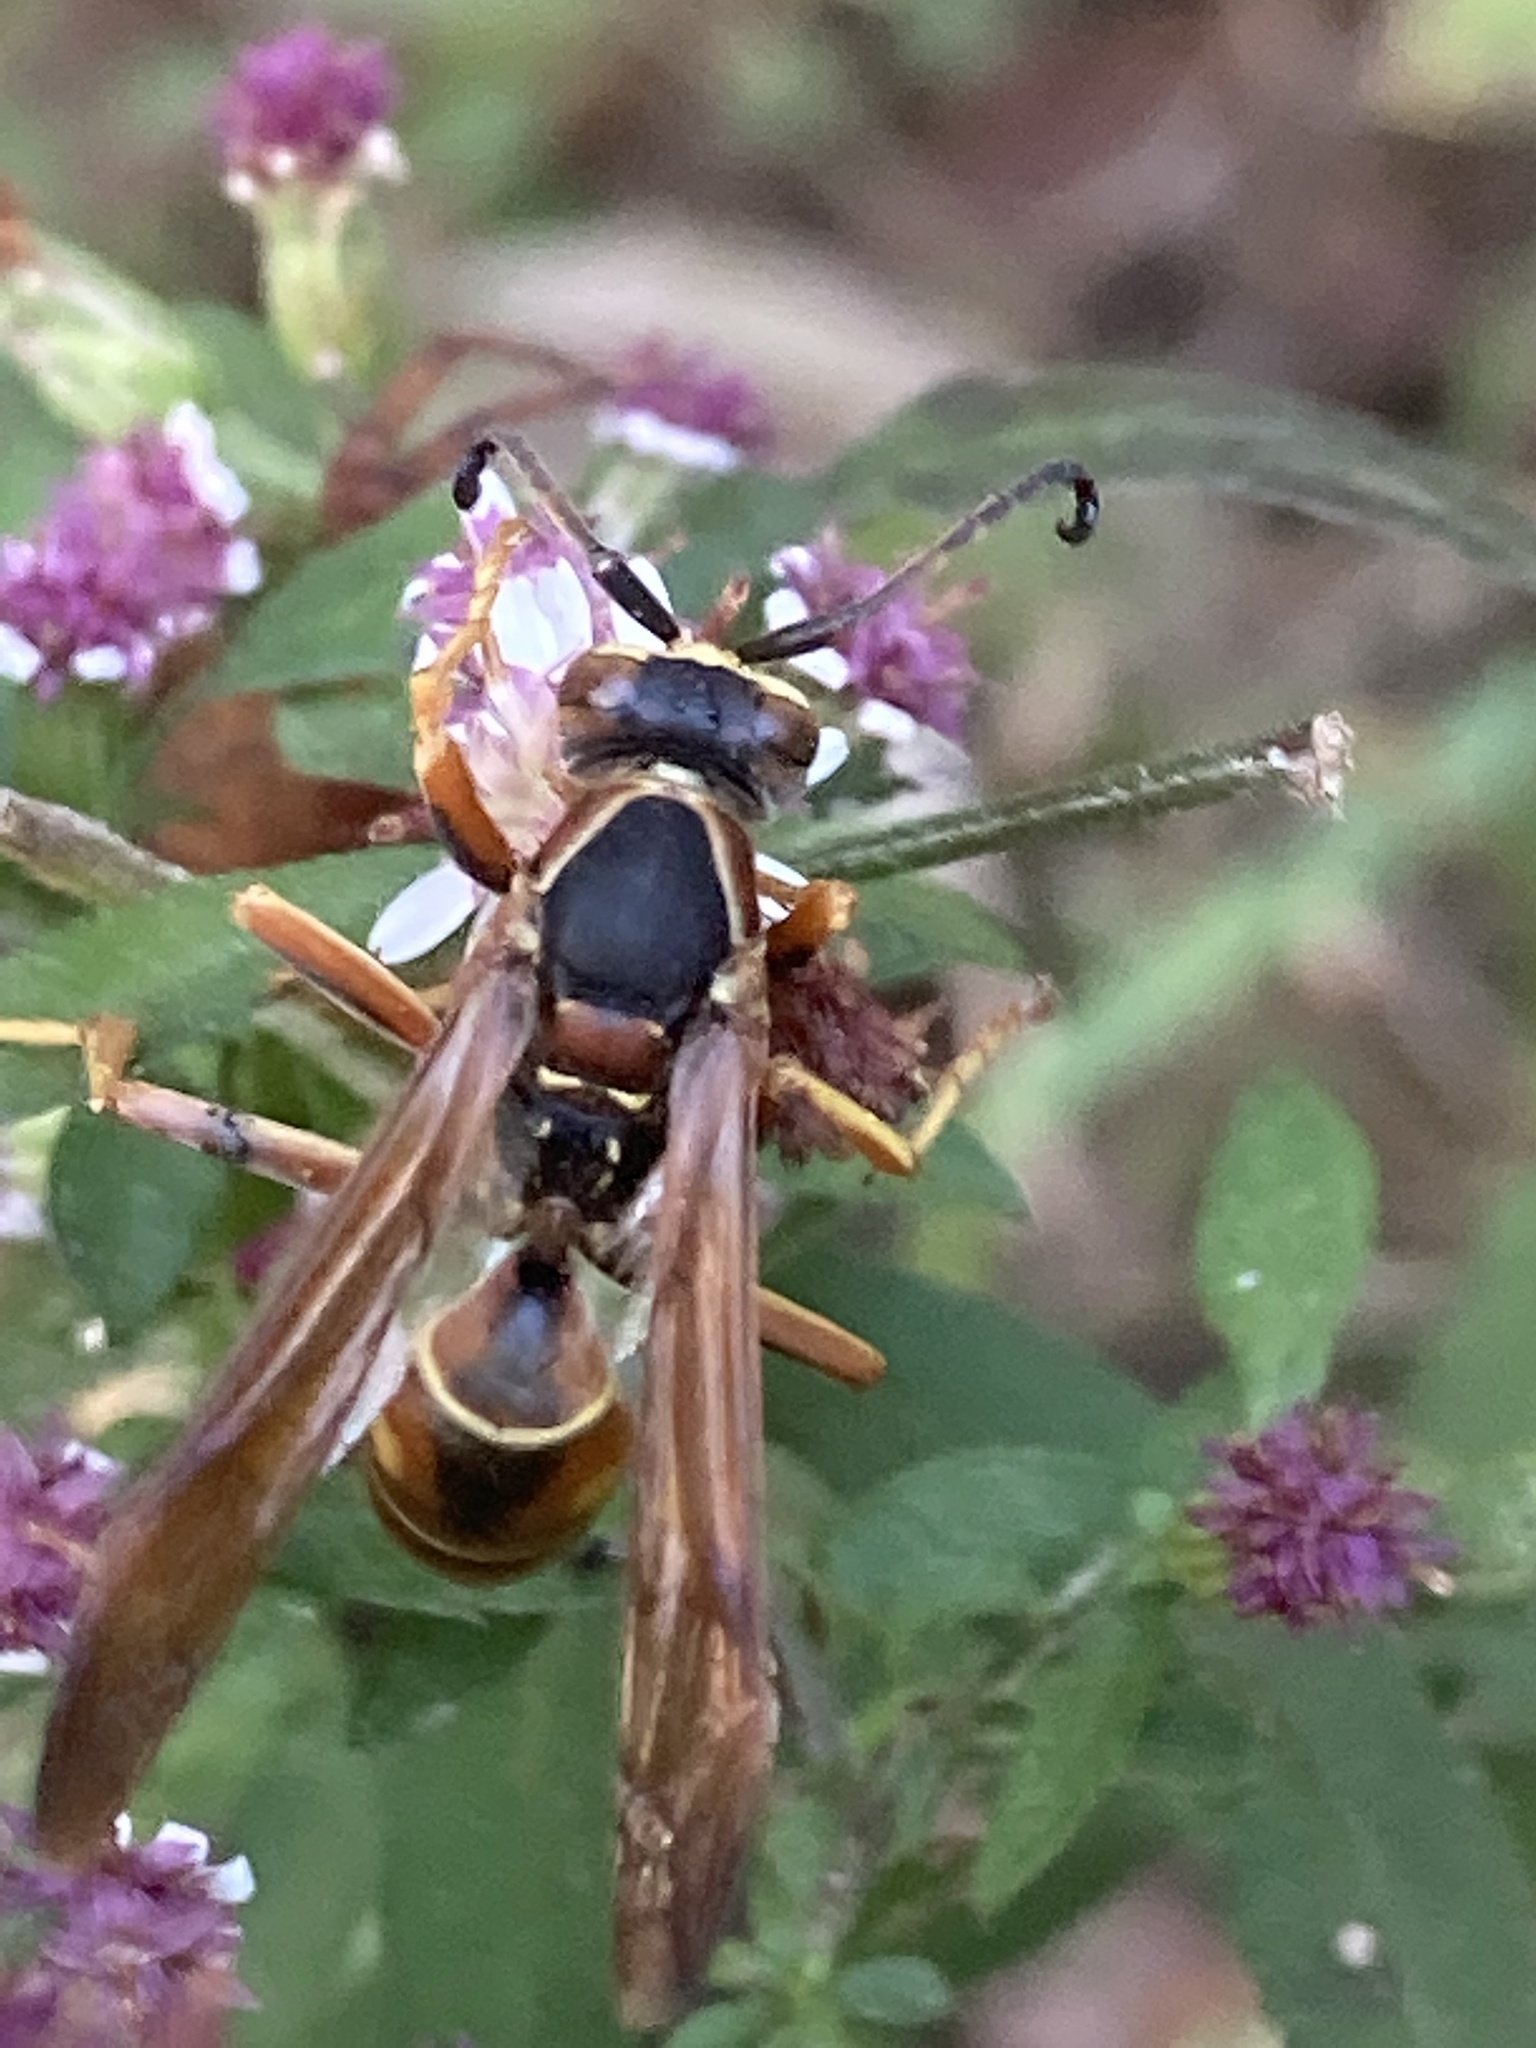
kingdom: Animalia
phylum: Arthropoda
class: Insecta
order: Hymenoptera
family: Eumenidae
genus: Polistes
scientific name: Polistes fuscatus
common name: Dark paper wasp
